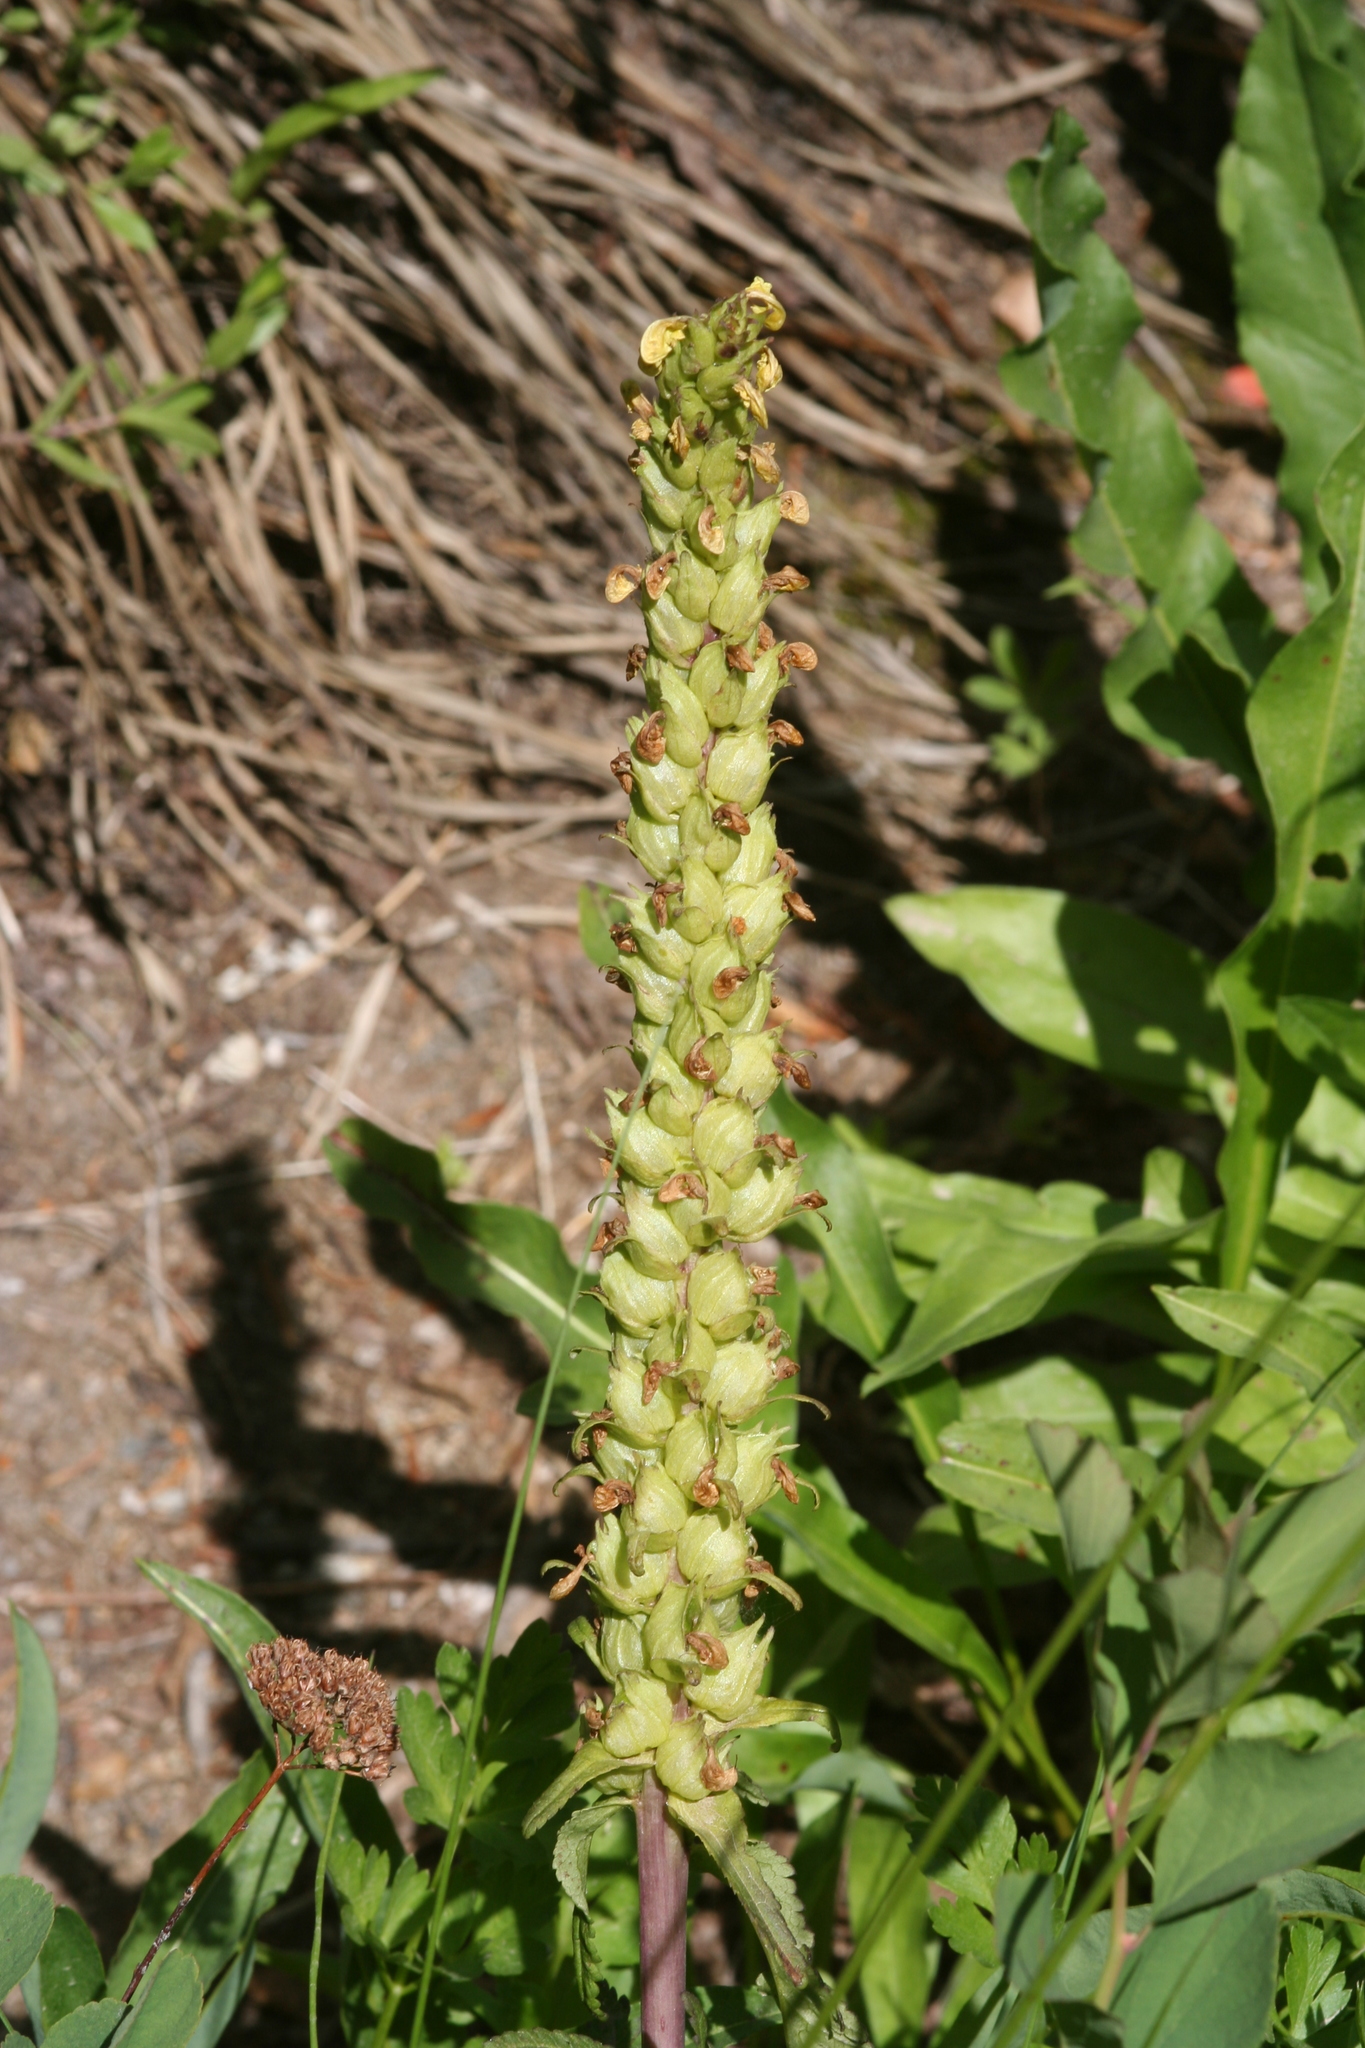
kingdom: Plantae
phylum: Tracheophyta
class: Magnoliopsida
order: Lamiales
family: Orobanchaceae
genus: Pedicularis
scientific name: Pedicularis bracteosa
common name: Bracted lousewort
